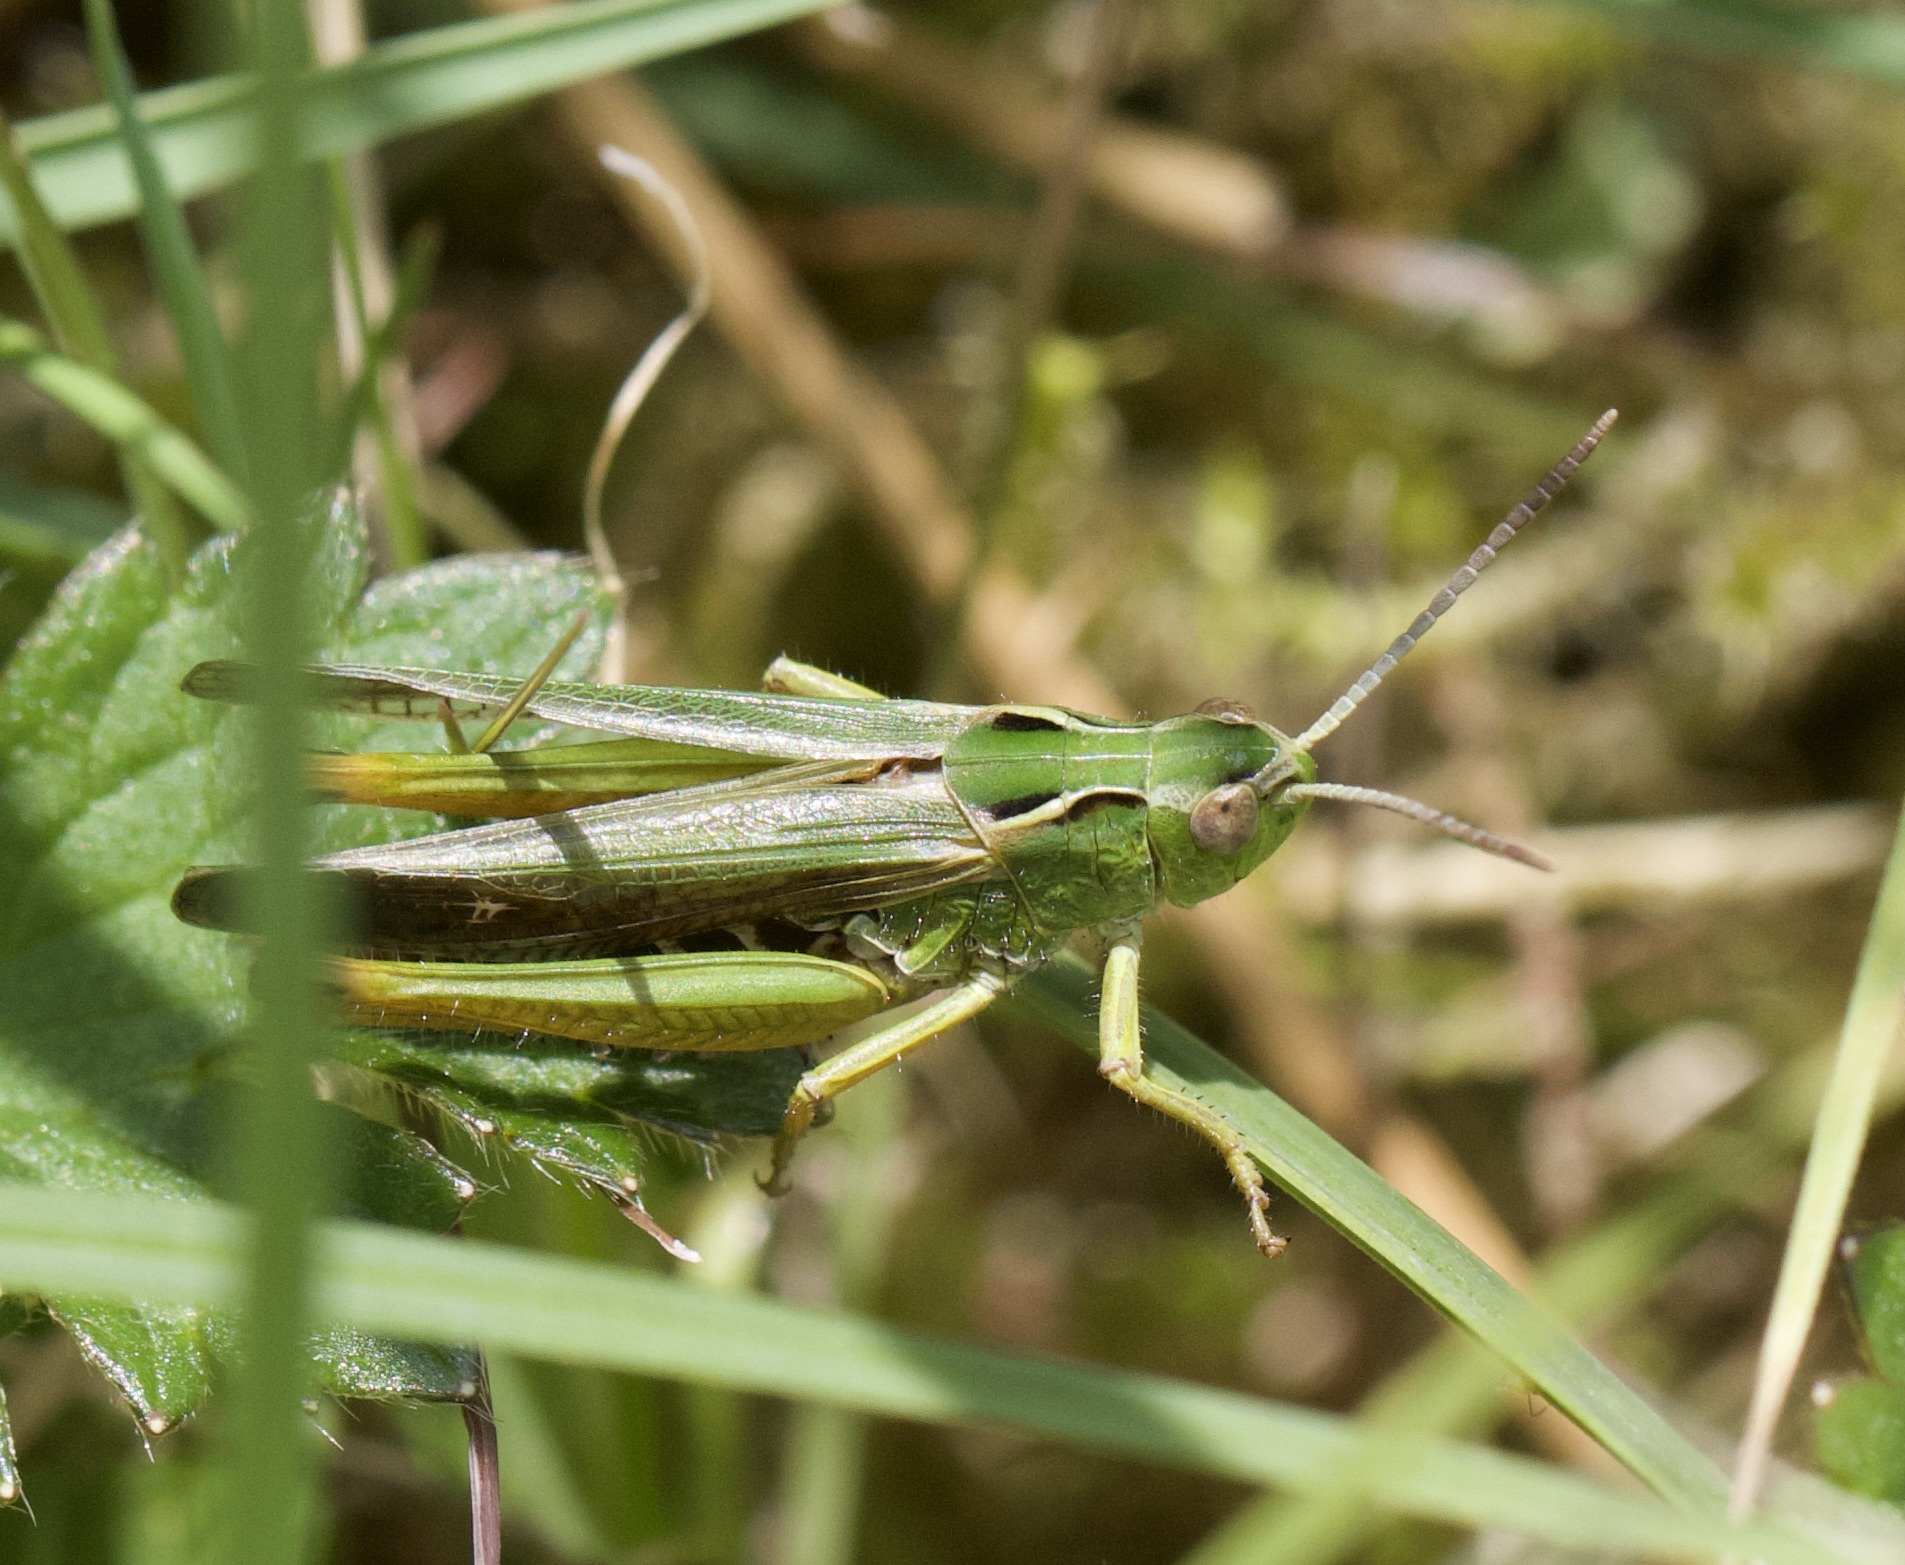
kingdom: Animalia
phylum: Arthropoda
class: Insecta
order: Orthoptera
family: Acrididae
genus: Omocestus
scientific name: Omocestus viridulus
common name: Common green grasshopper
